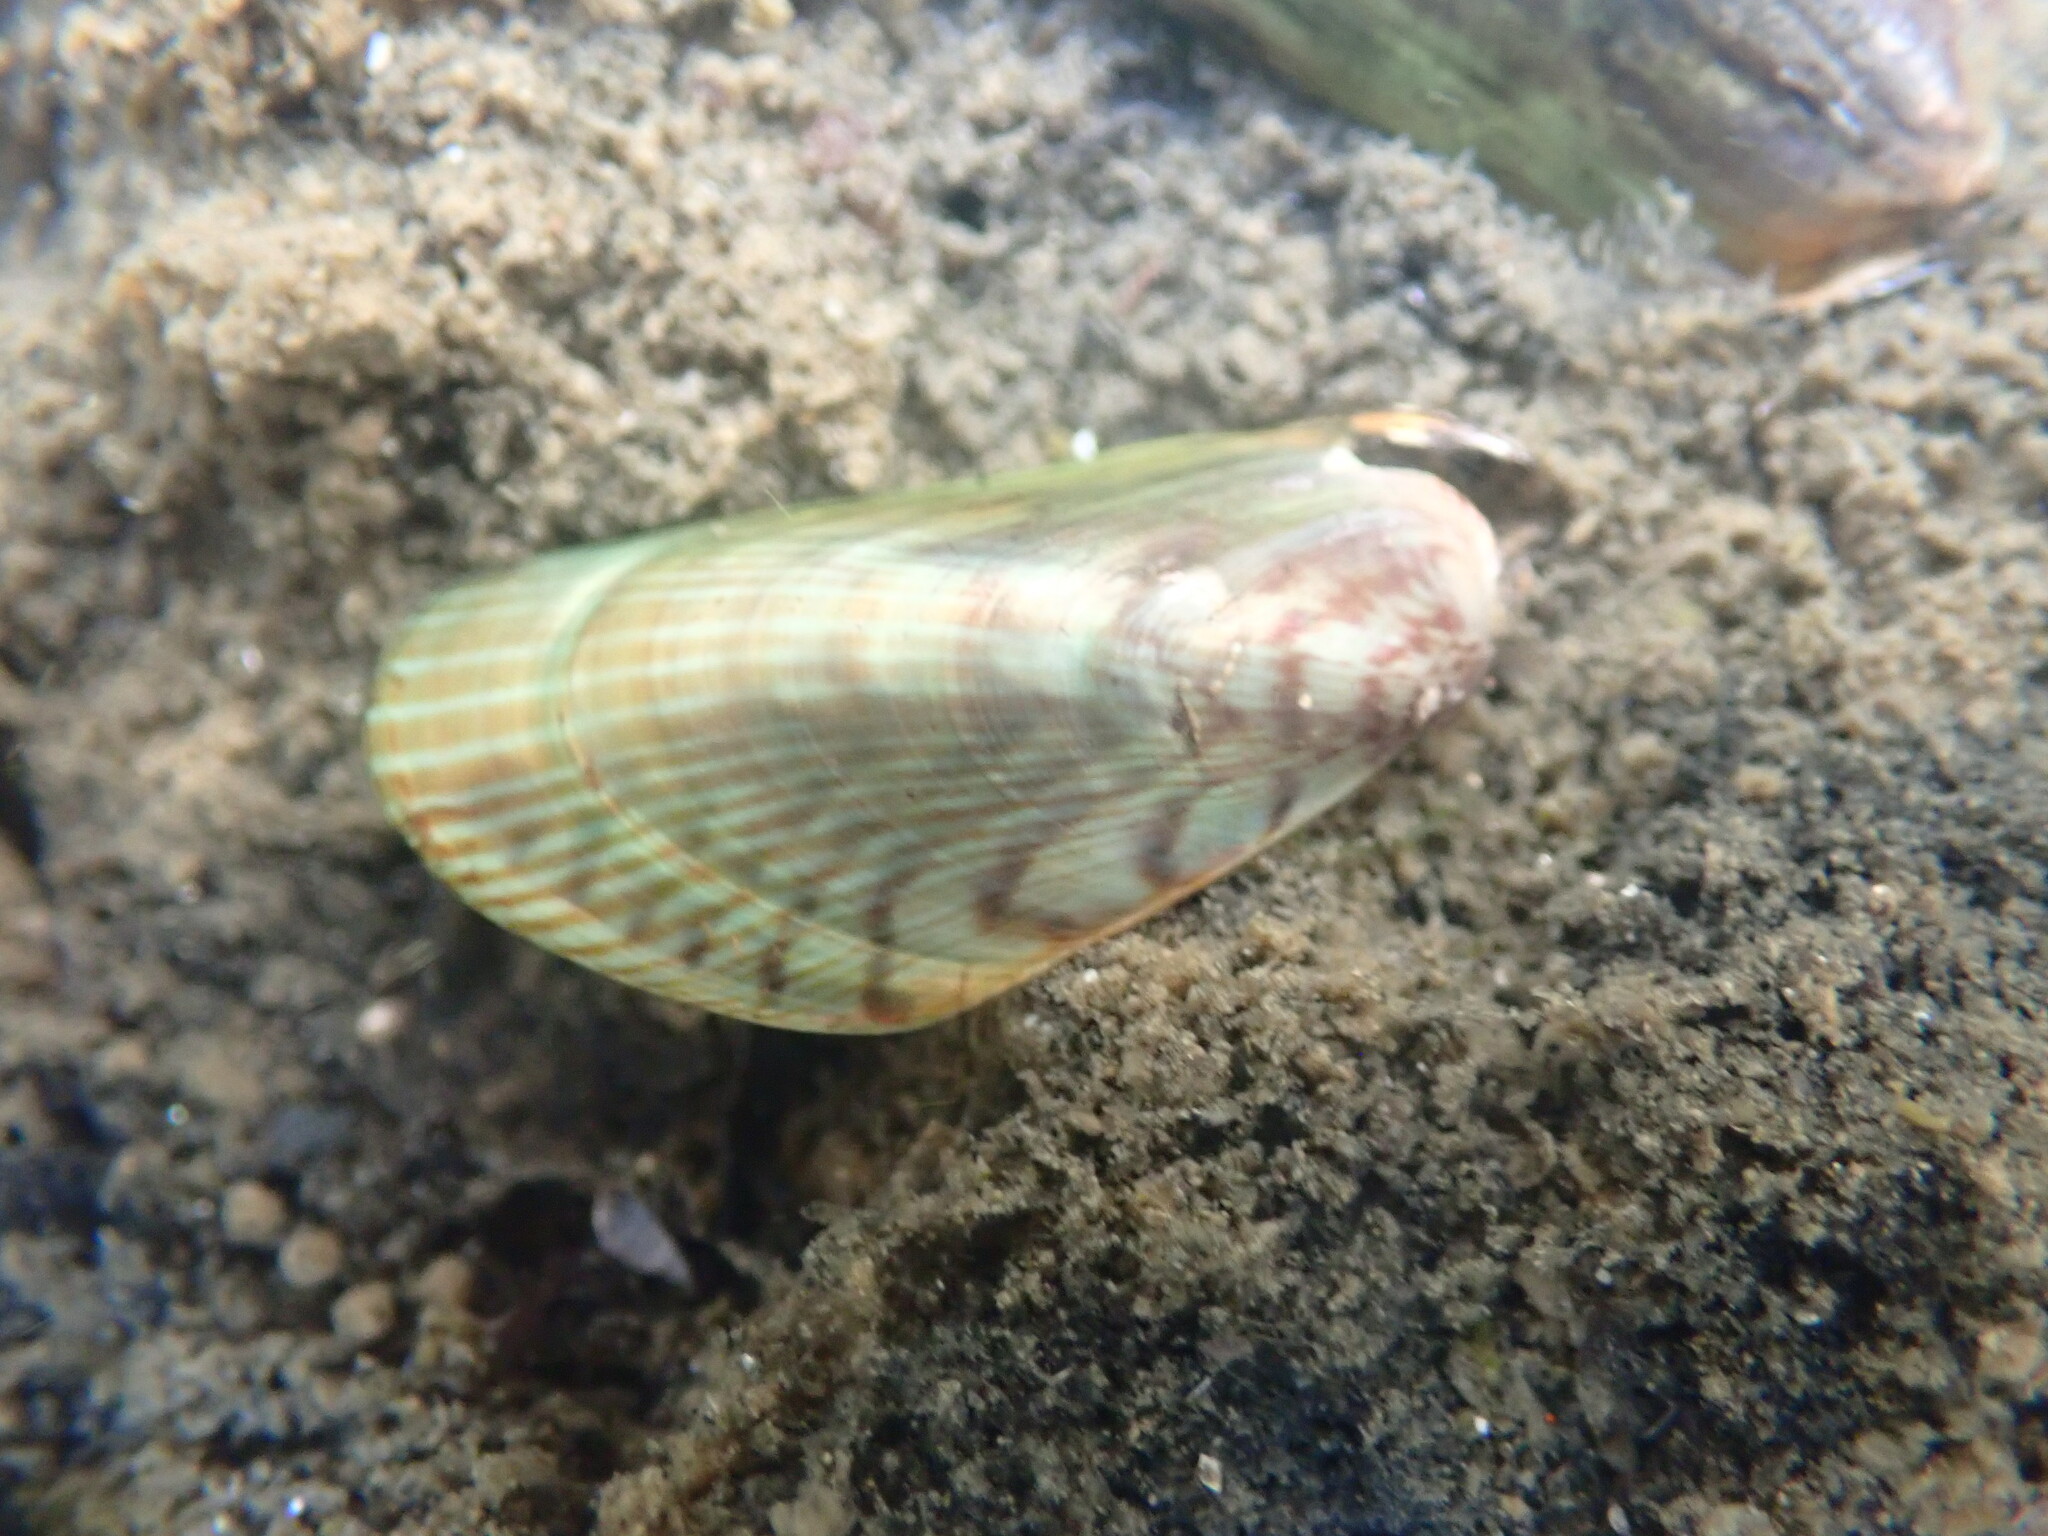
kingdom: Animalia
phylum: Mollusca
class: Bivalvia
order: Mytilida
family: Mytilidae
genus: Arcuatula
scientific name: Arcuatula senhousia
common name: Asian mussel
